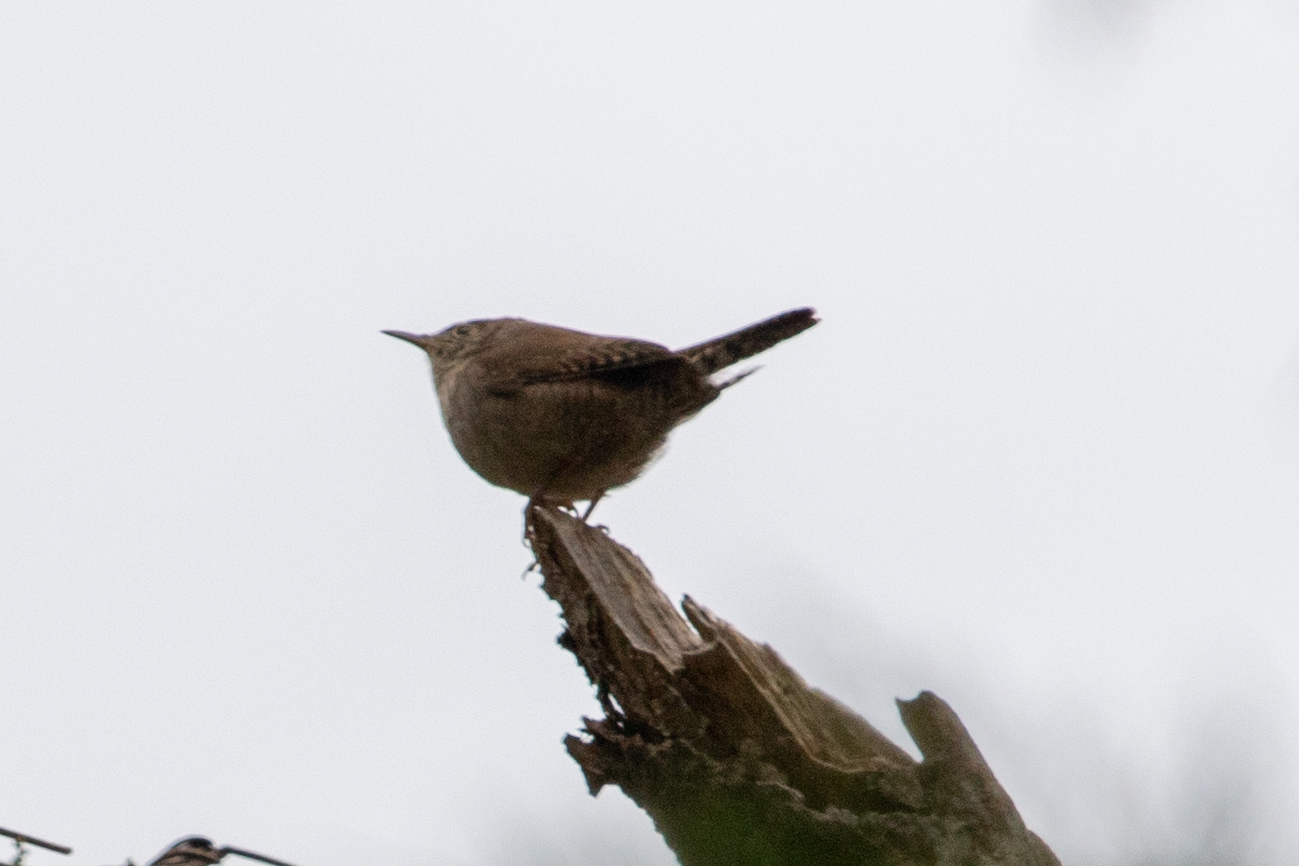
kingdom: Animalia
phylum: Chordata
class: Aves
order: Passeriformes
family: Troglodytidae
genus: Troglodytes
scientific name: Troglodytes aedon
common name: House wren
